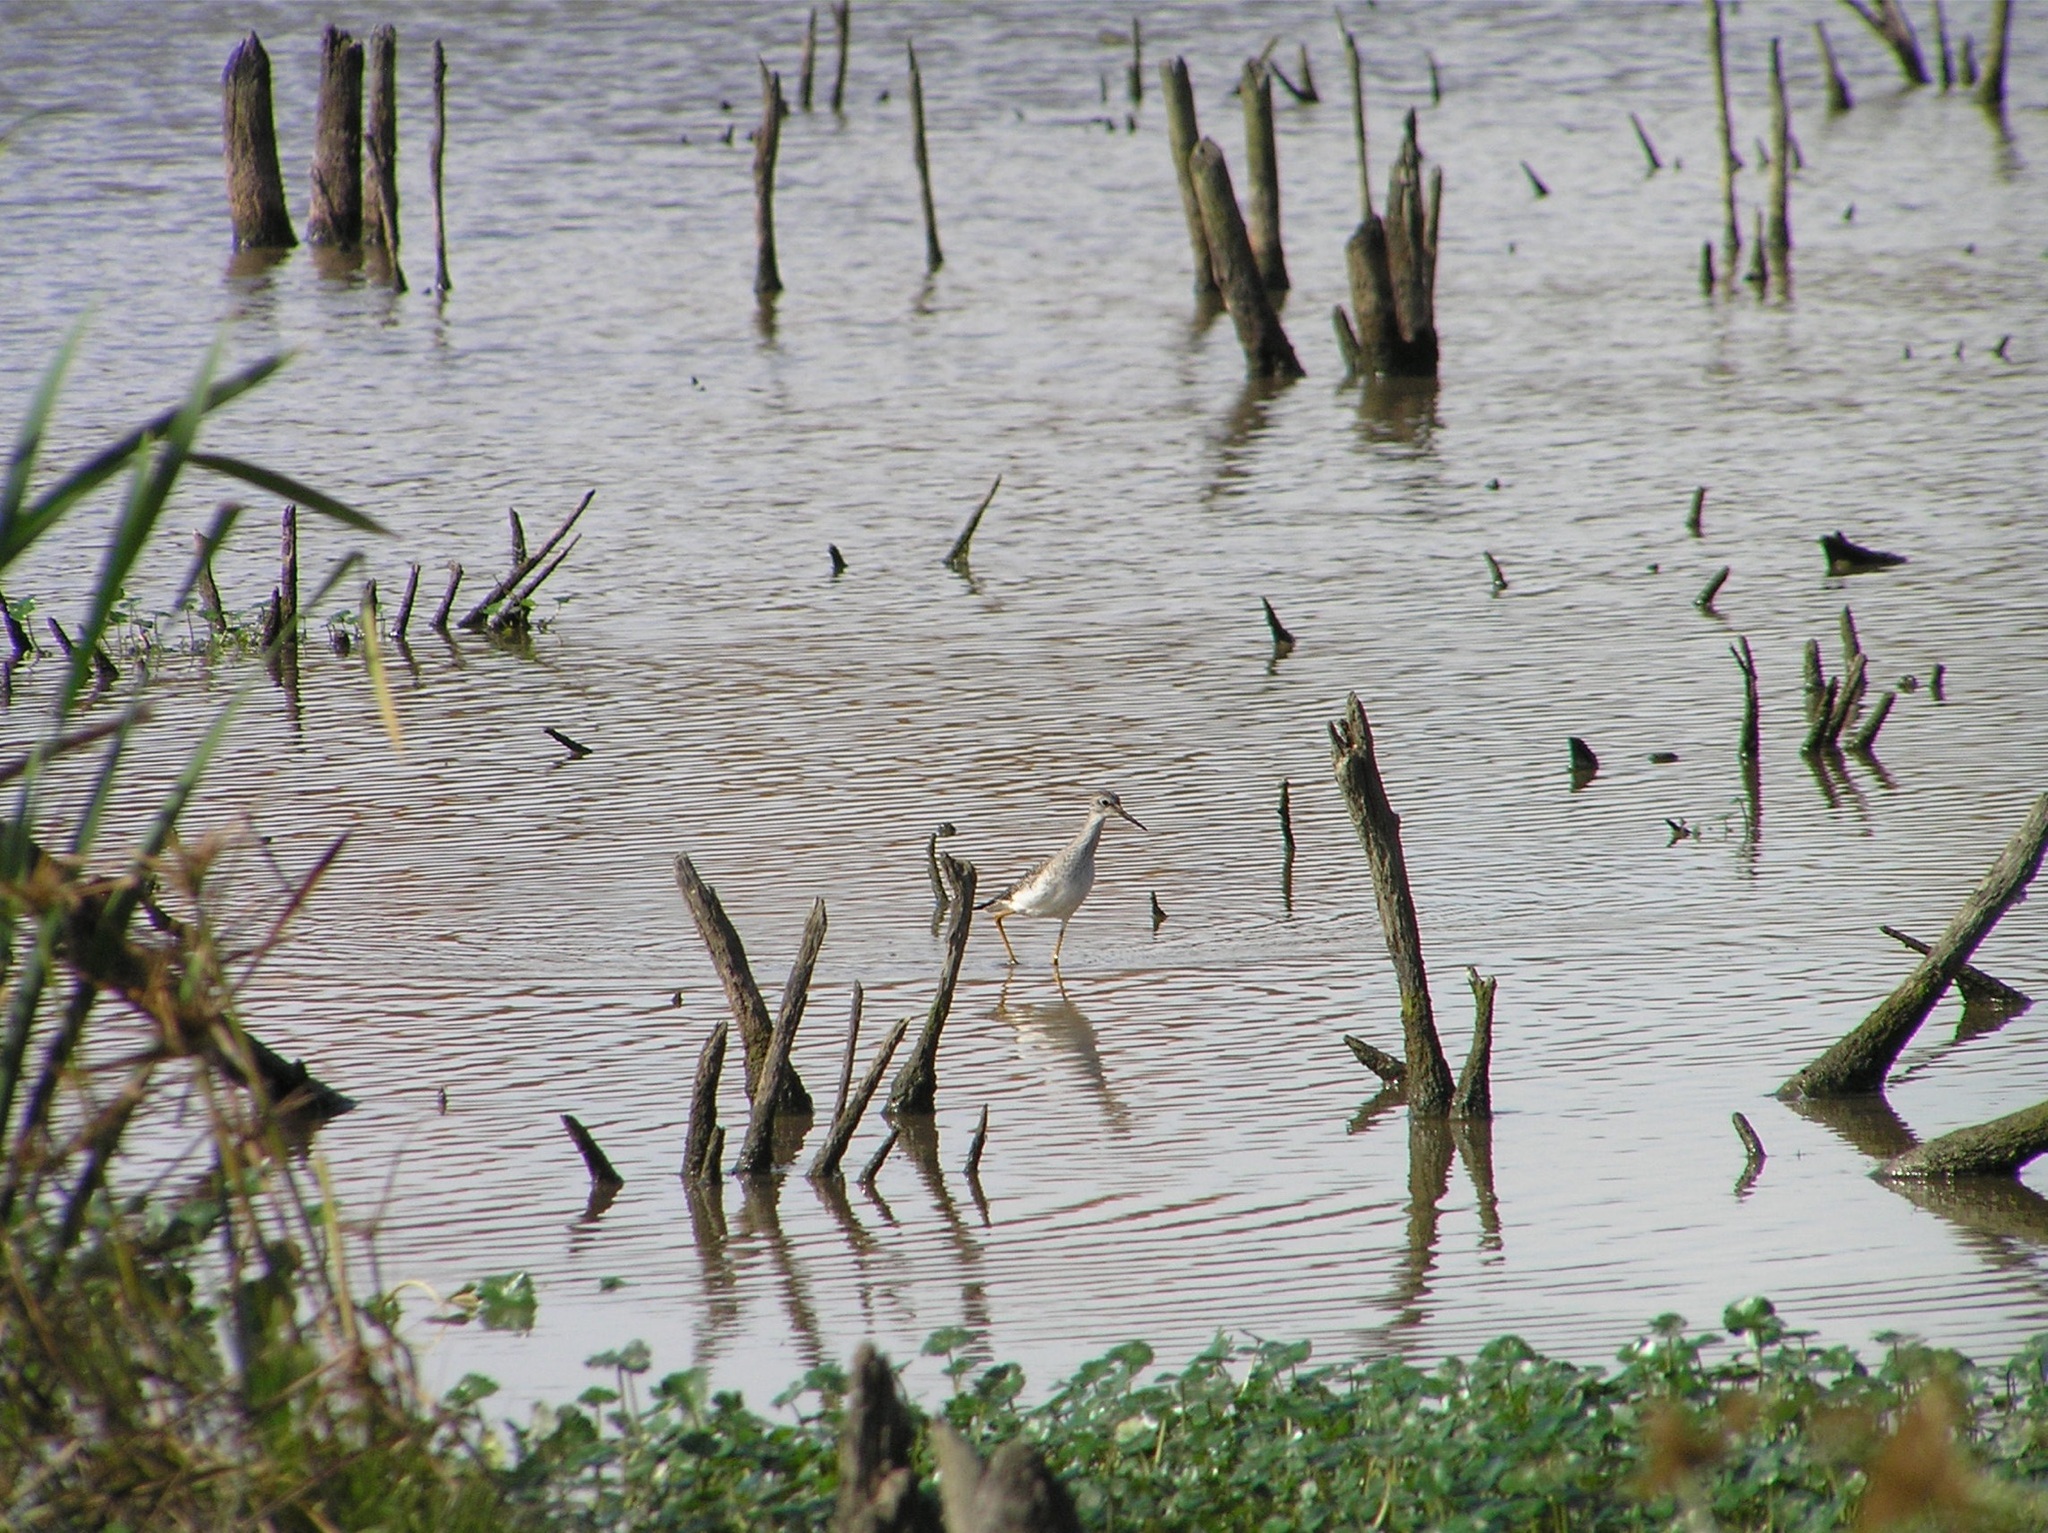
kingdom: Animalia
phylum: Chordata
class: Aves
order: Charadriiformes
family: Scolopacidae
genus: Tringa
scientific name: Tringa flavipes
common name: Lesser yellowlegs
